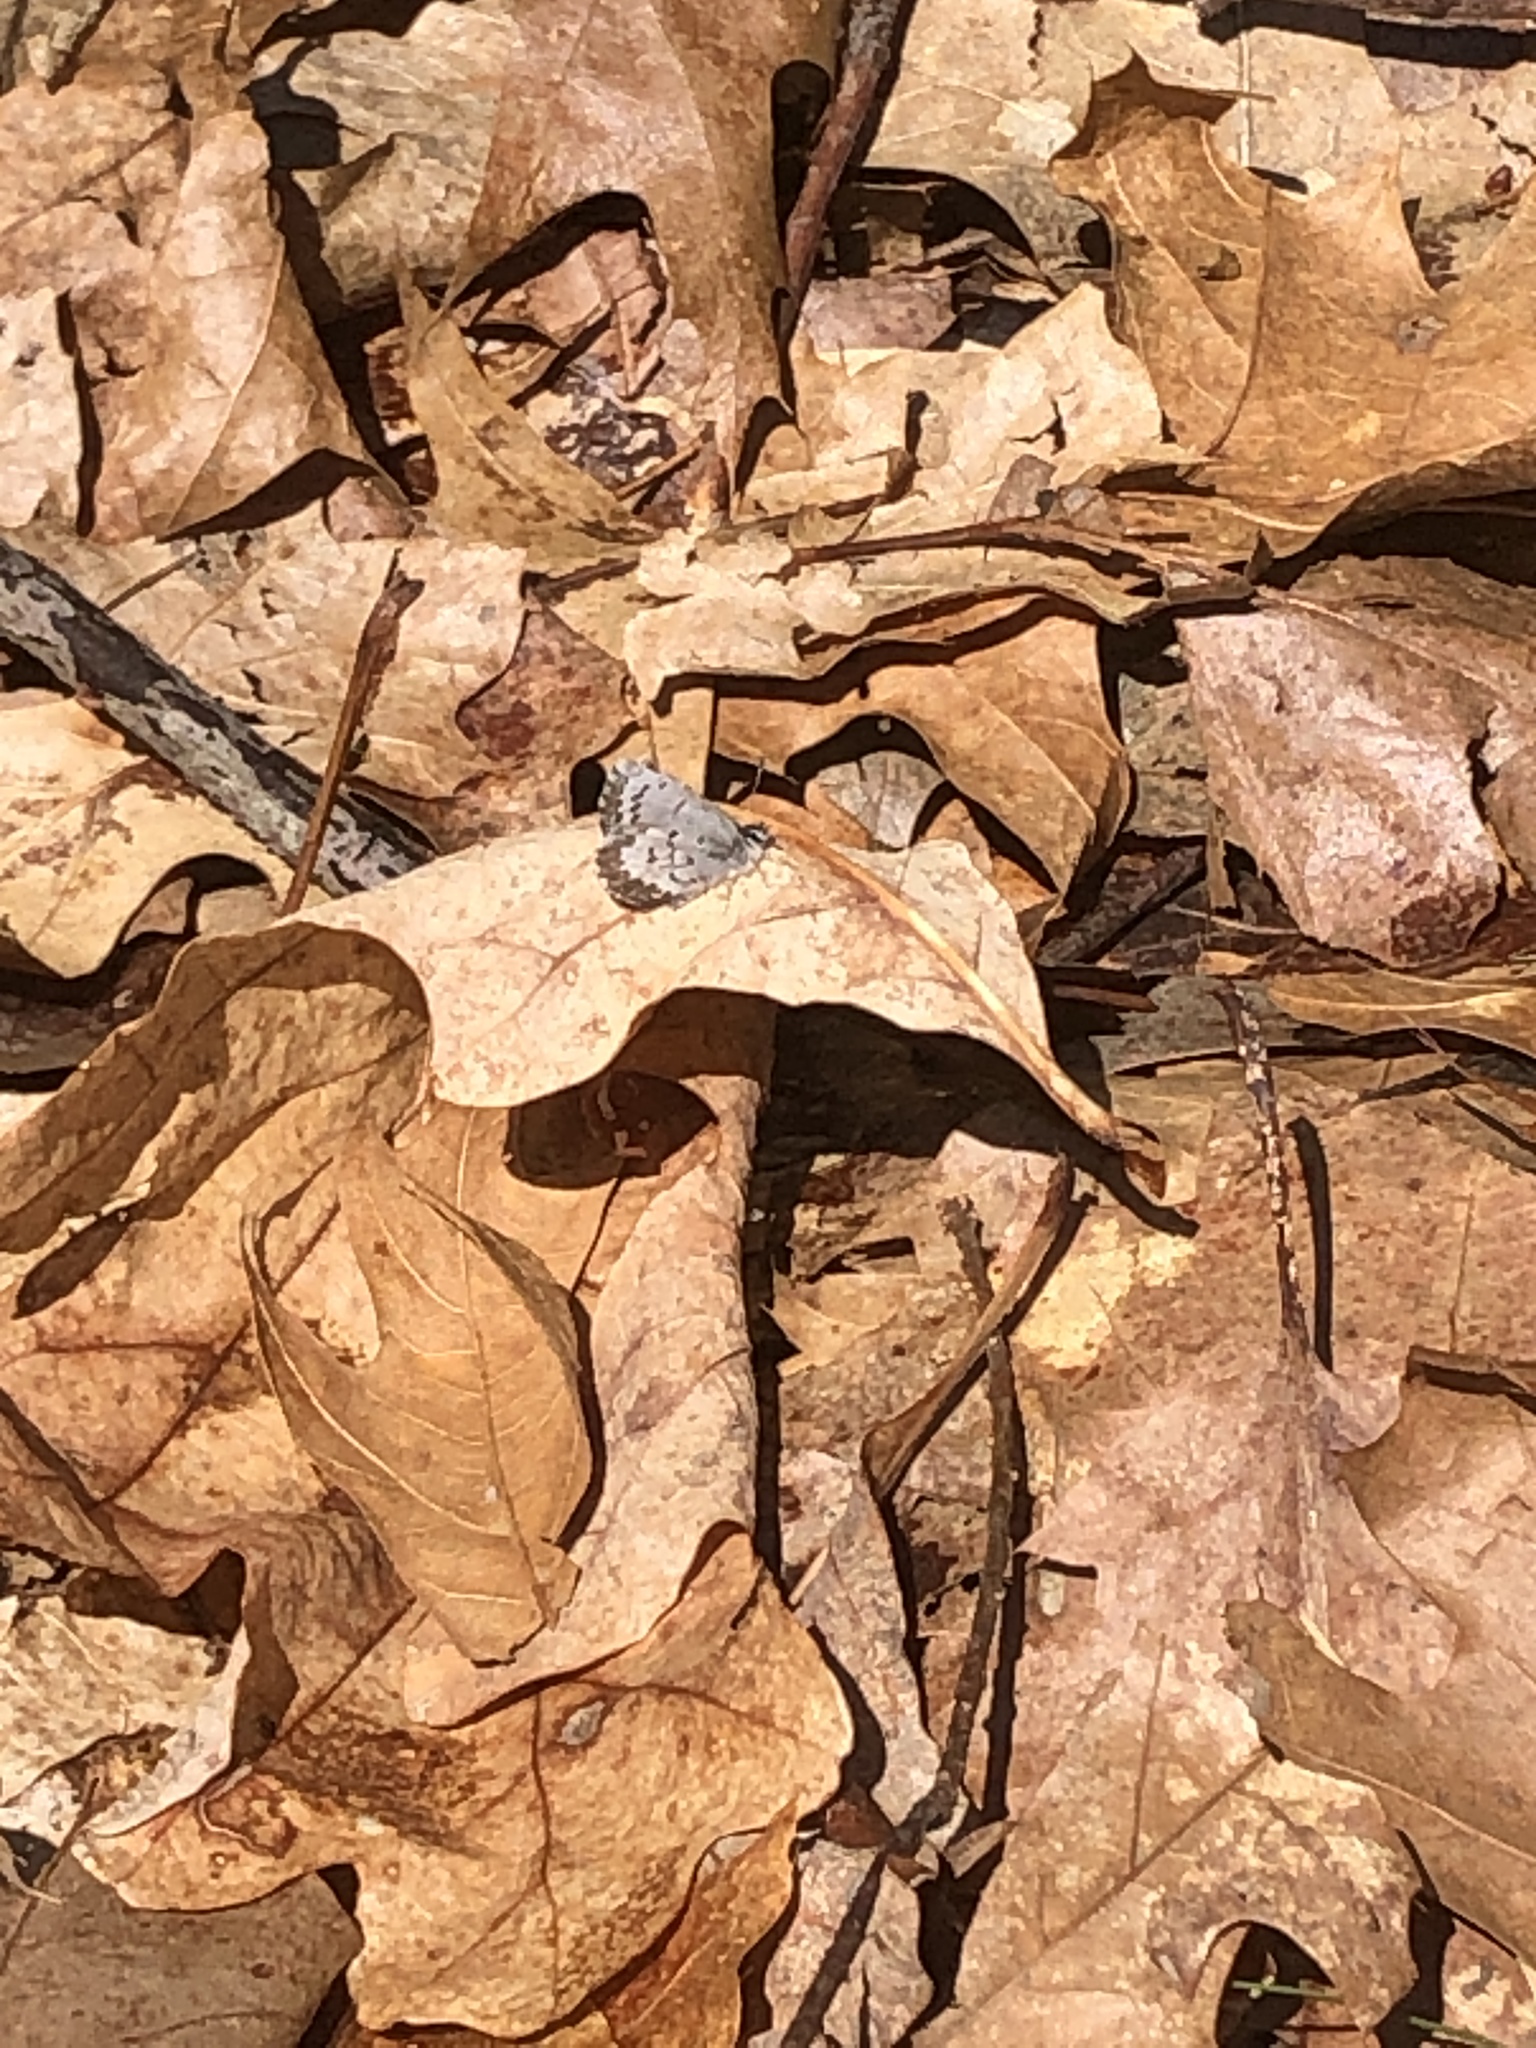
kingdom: Animalia
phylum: Arthropoda
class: Insecta
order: Lepidoptera
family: Lycaenidae
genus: Celastrina
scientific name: Celastrina ladon
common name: Spring azure
